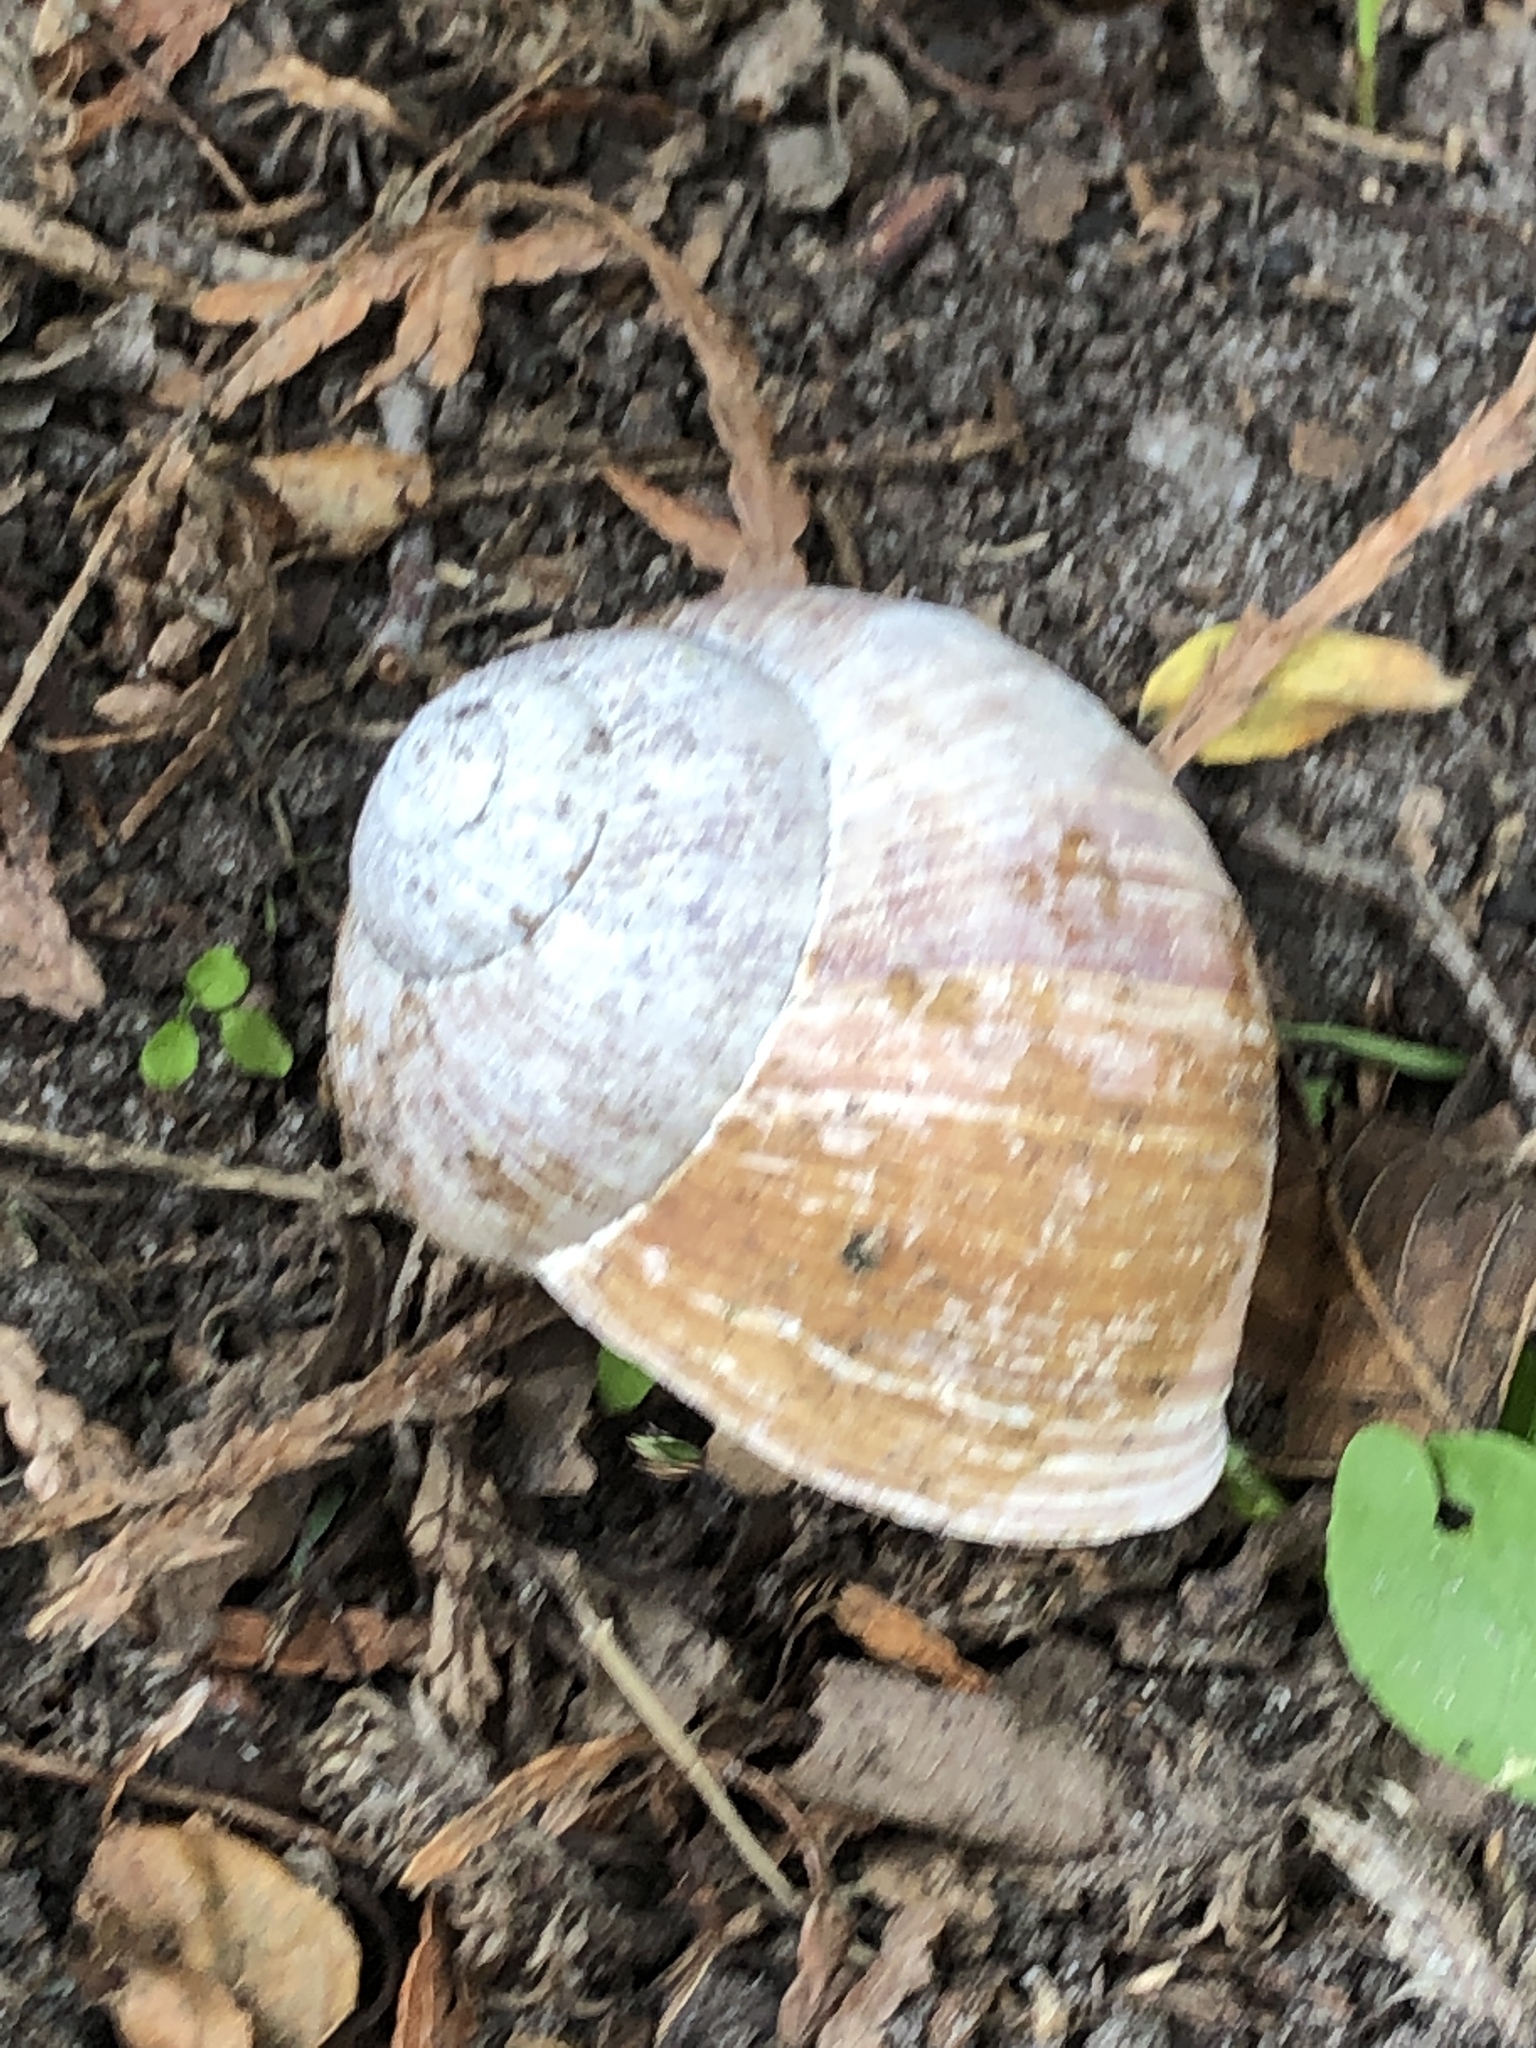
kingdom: Animalia
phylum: Mollusca
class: Gastropoda
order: Stylommatophora
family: Helicidae
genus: Helix
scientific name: Helix pomatia
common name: Roman snail
